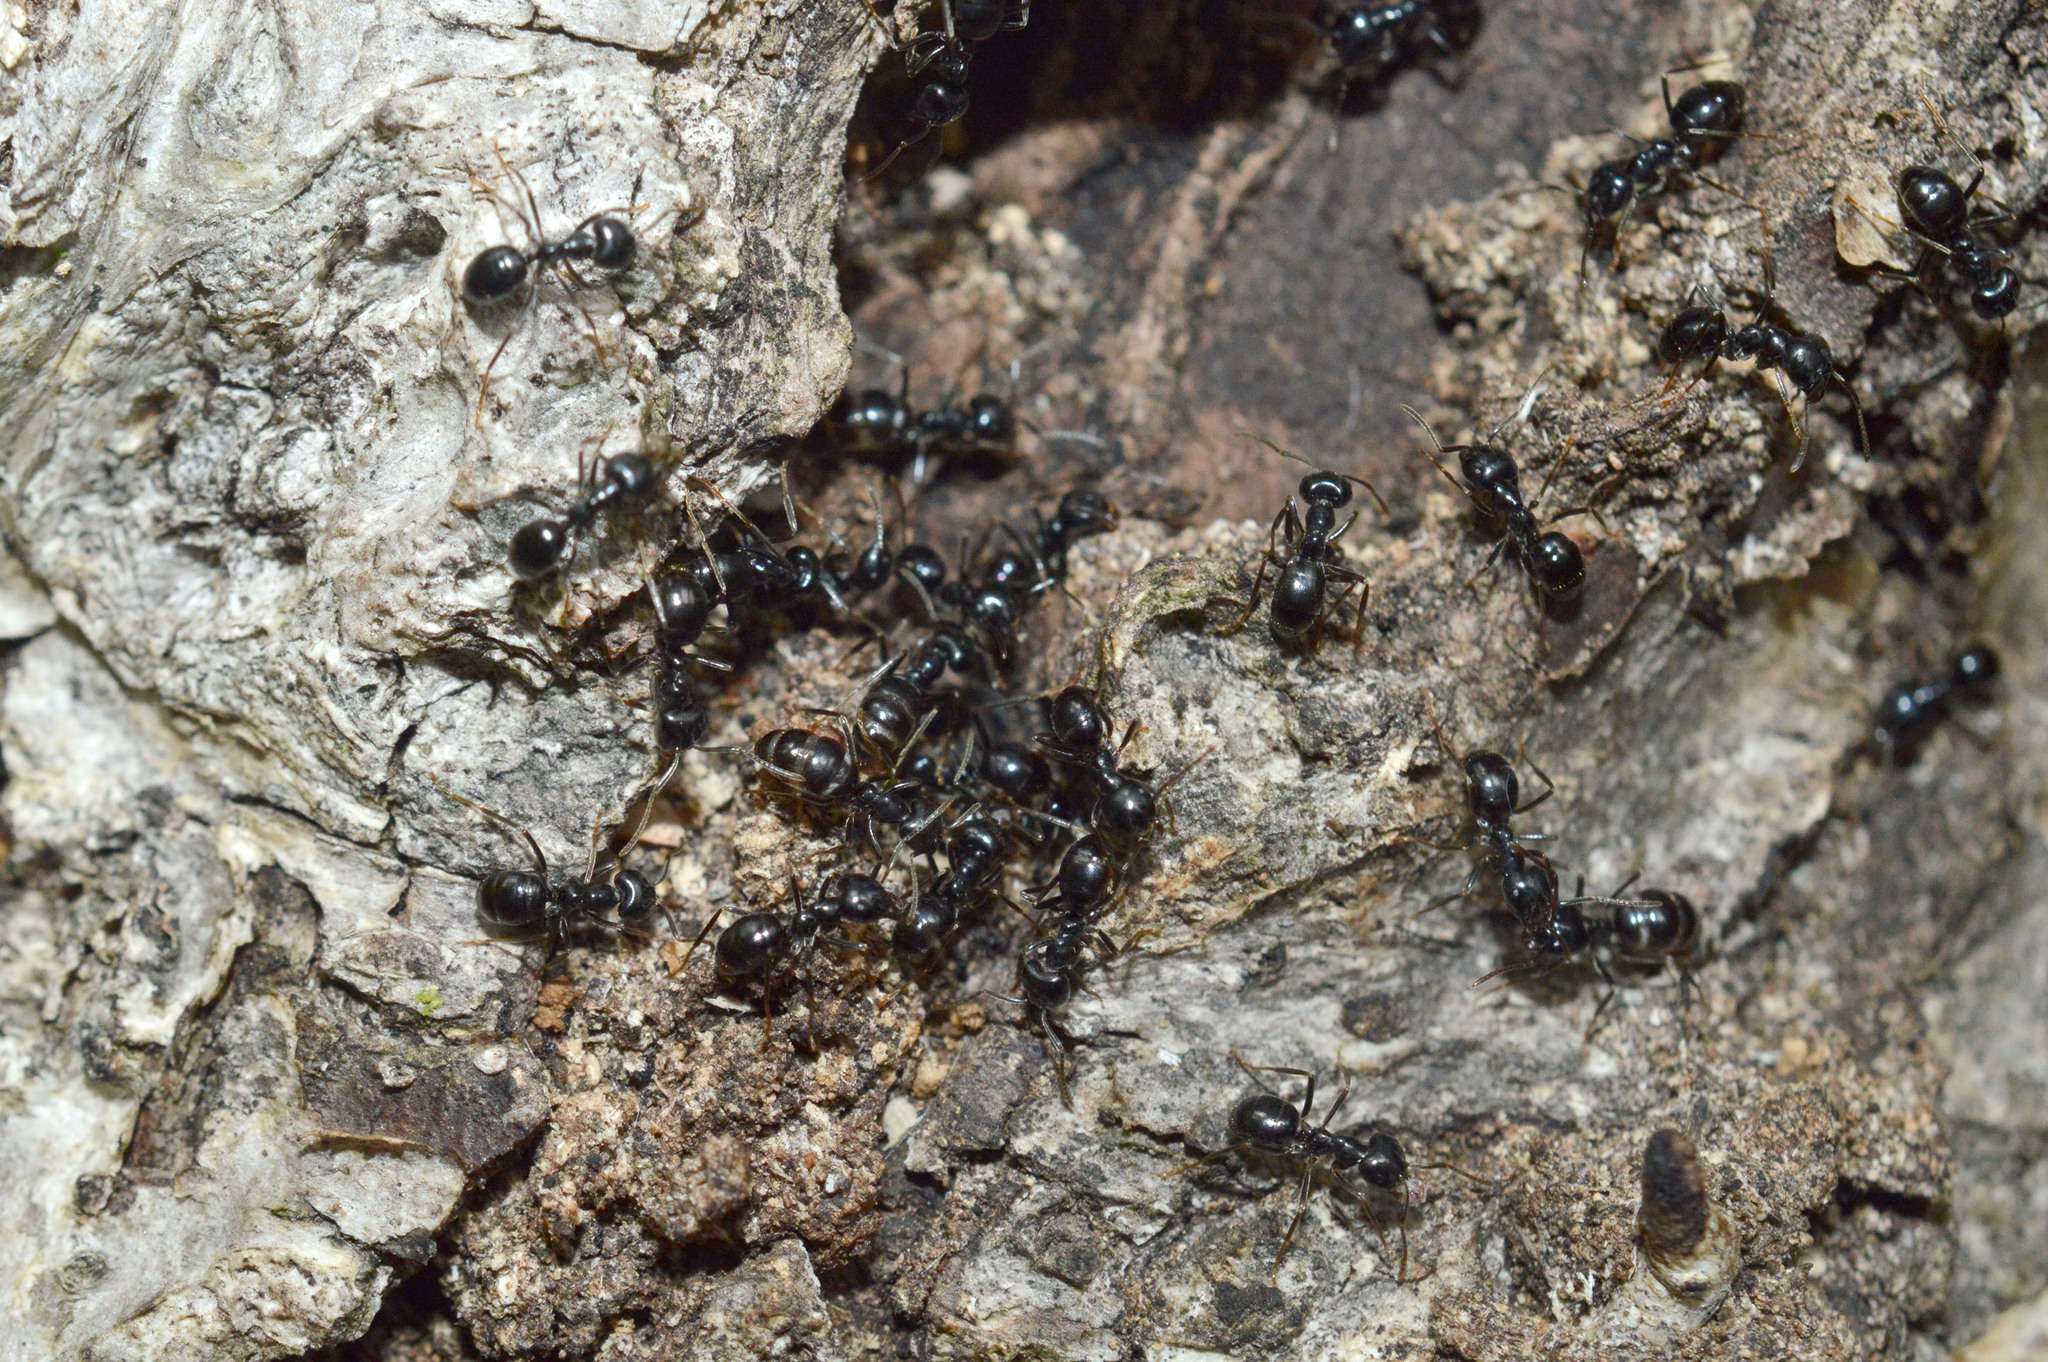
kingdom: Animalia
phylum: Arthropoda
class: Insecta
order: Hymenoptera
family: Formicidae
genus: Lasius
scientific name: Lasius fuliginosus
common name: Jet ant
